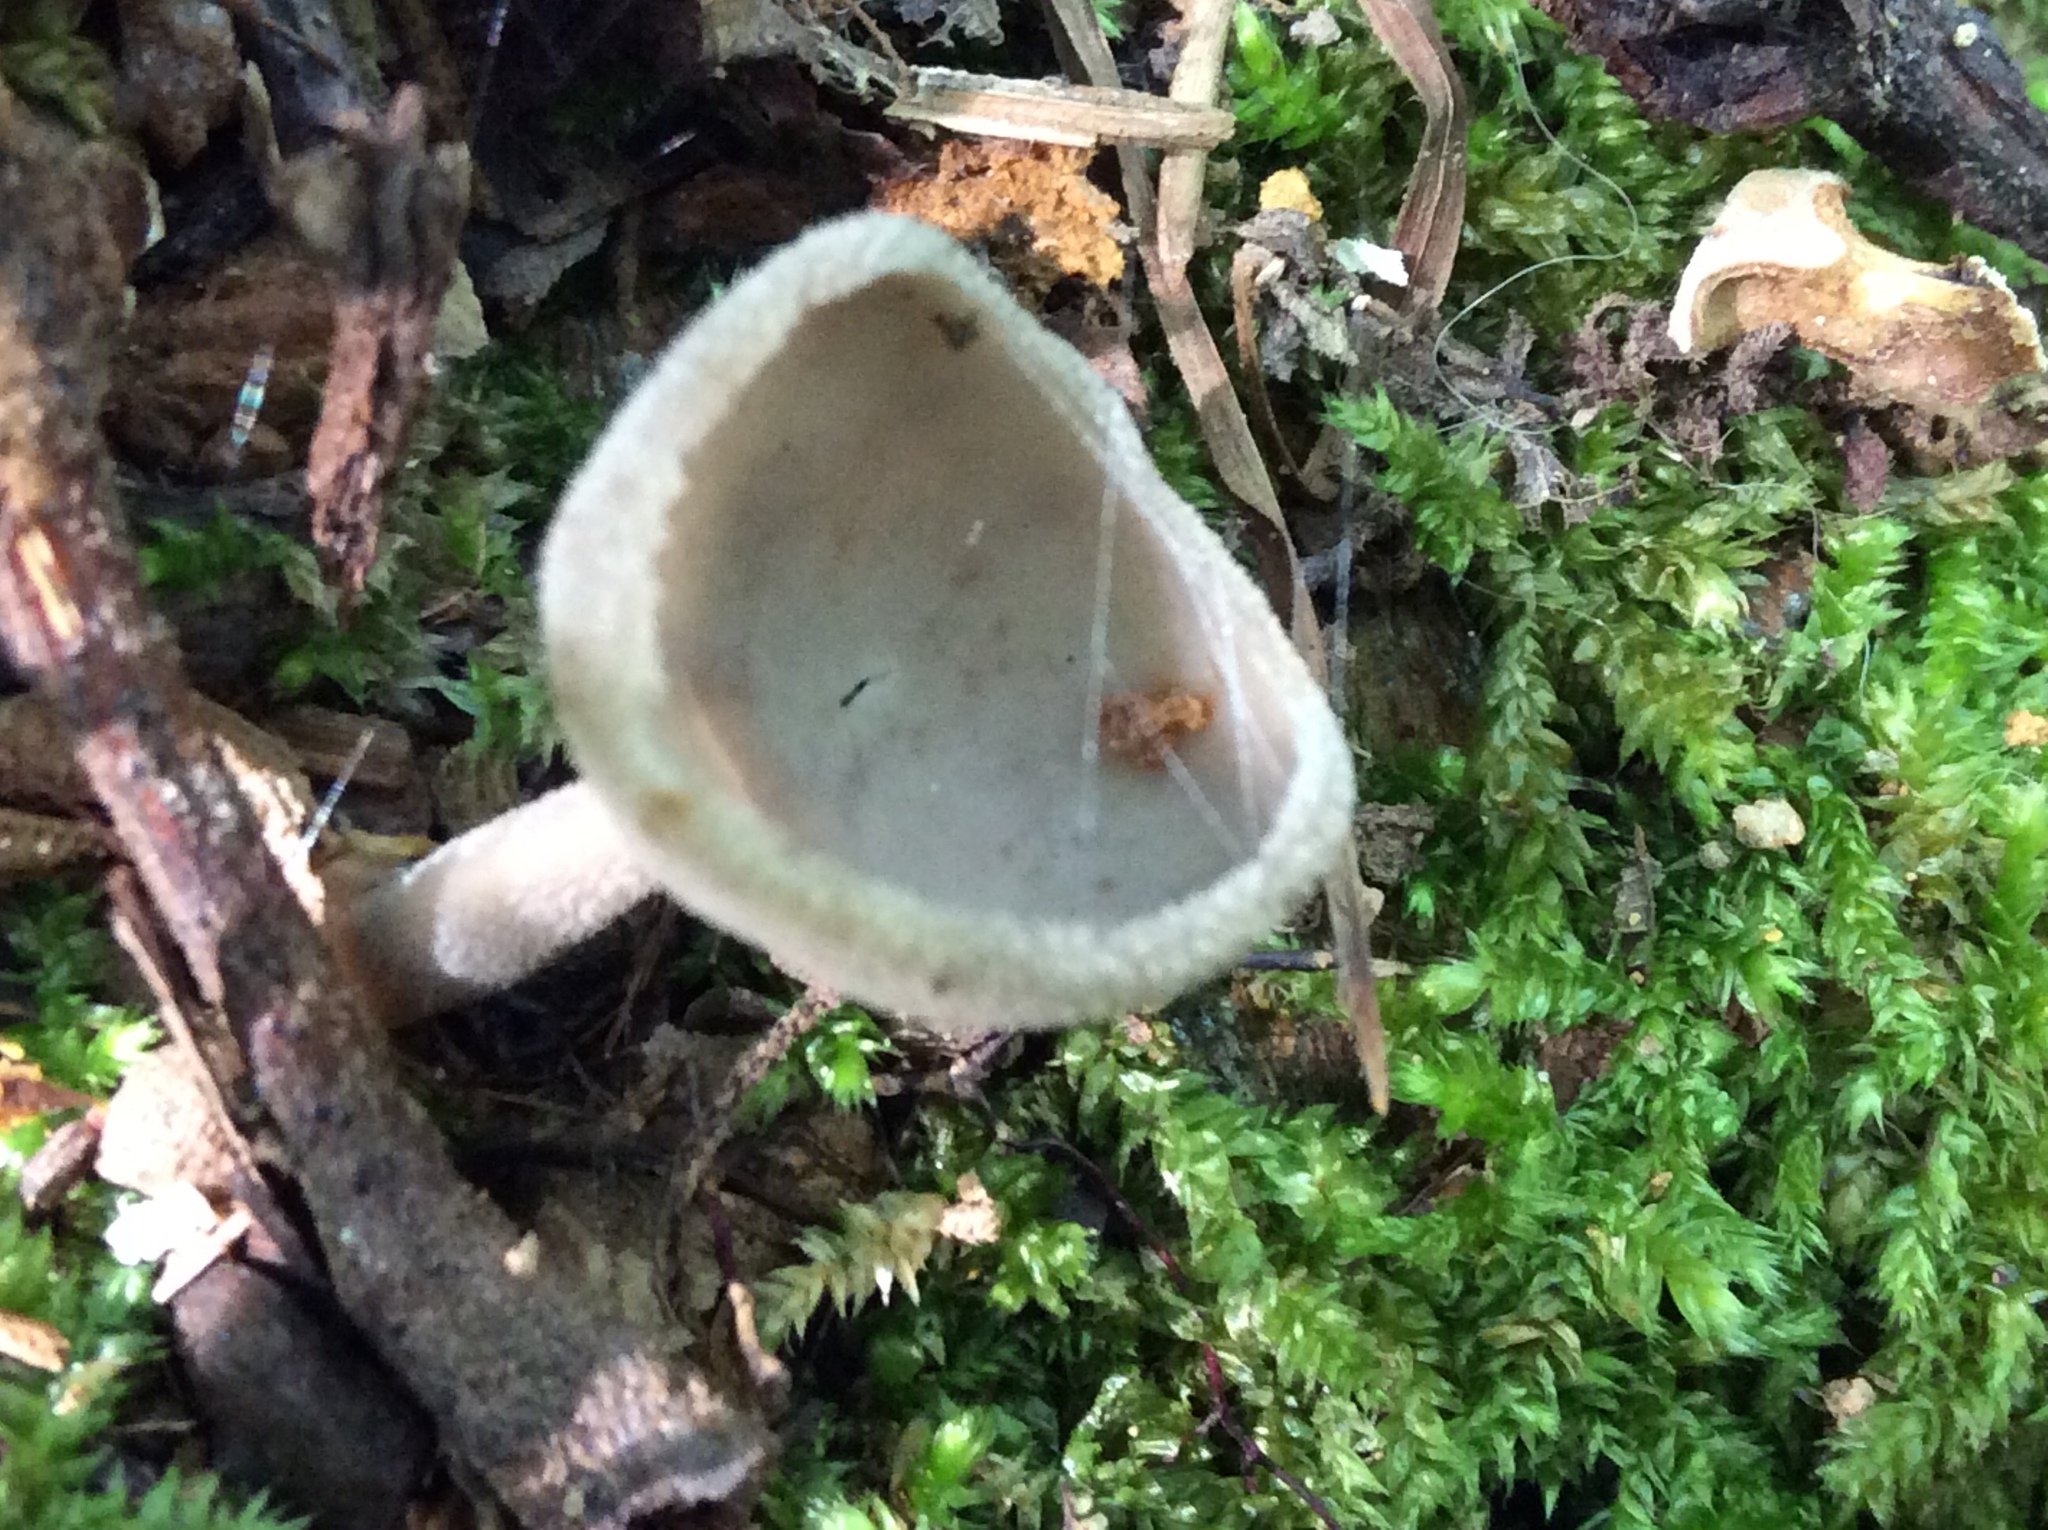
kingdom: Fungi
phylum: Ascomycota
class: Pezizomycetes
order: Pezizales
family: Helvellaceae
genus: Helvella
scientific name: Helvella macropus
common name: Felt saddle
